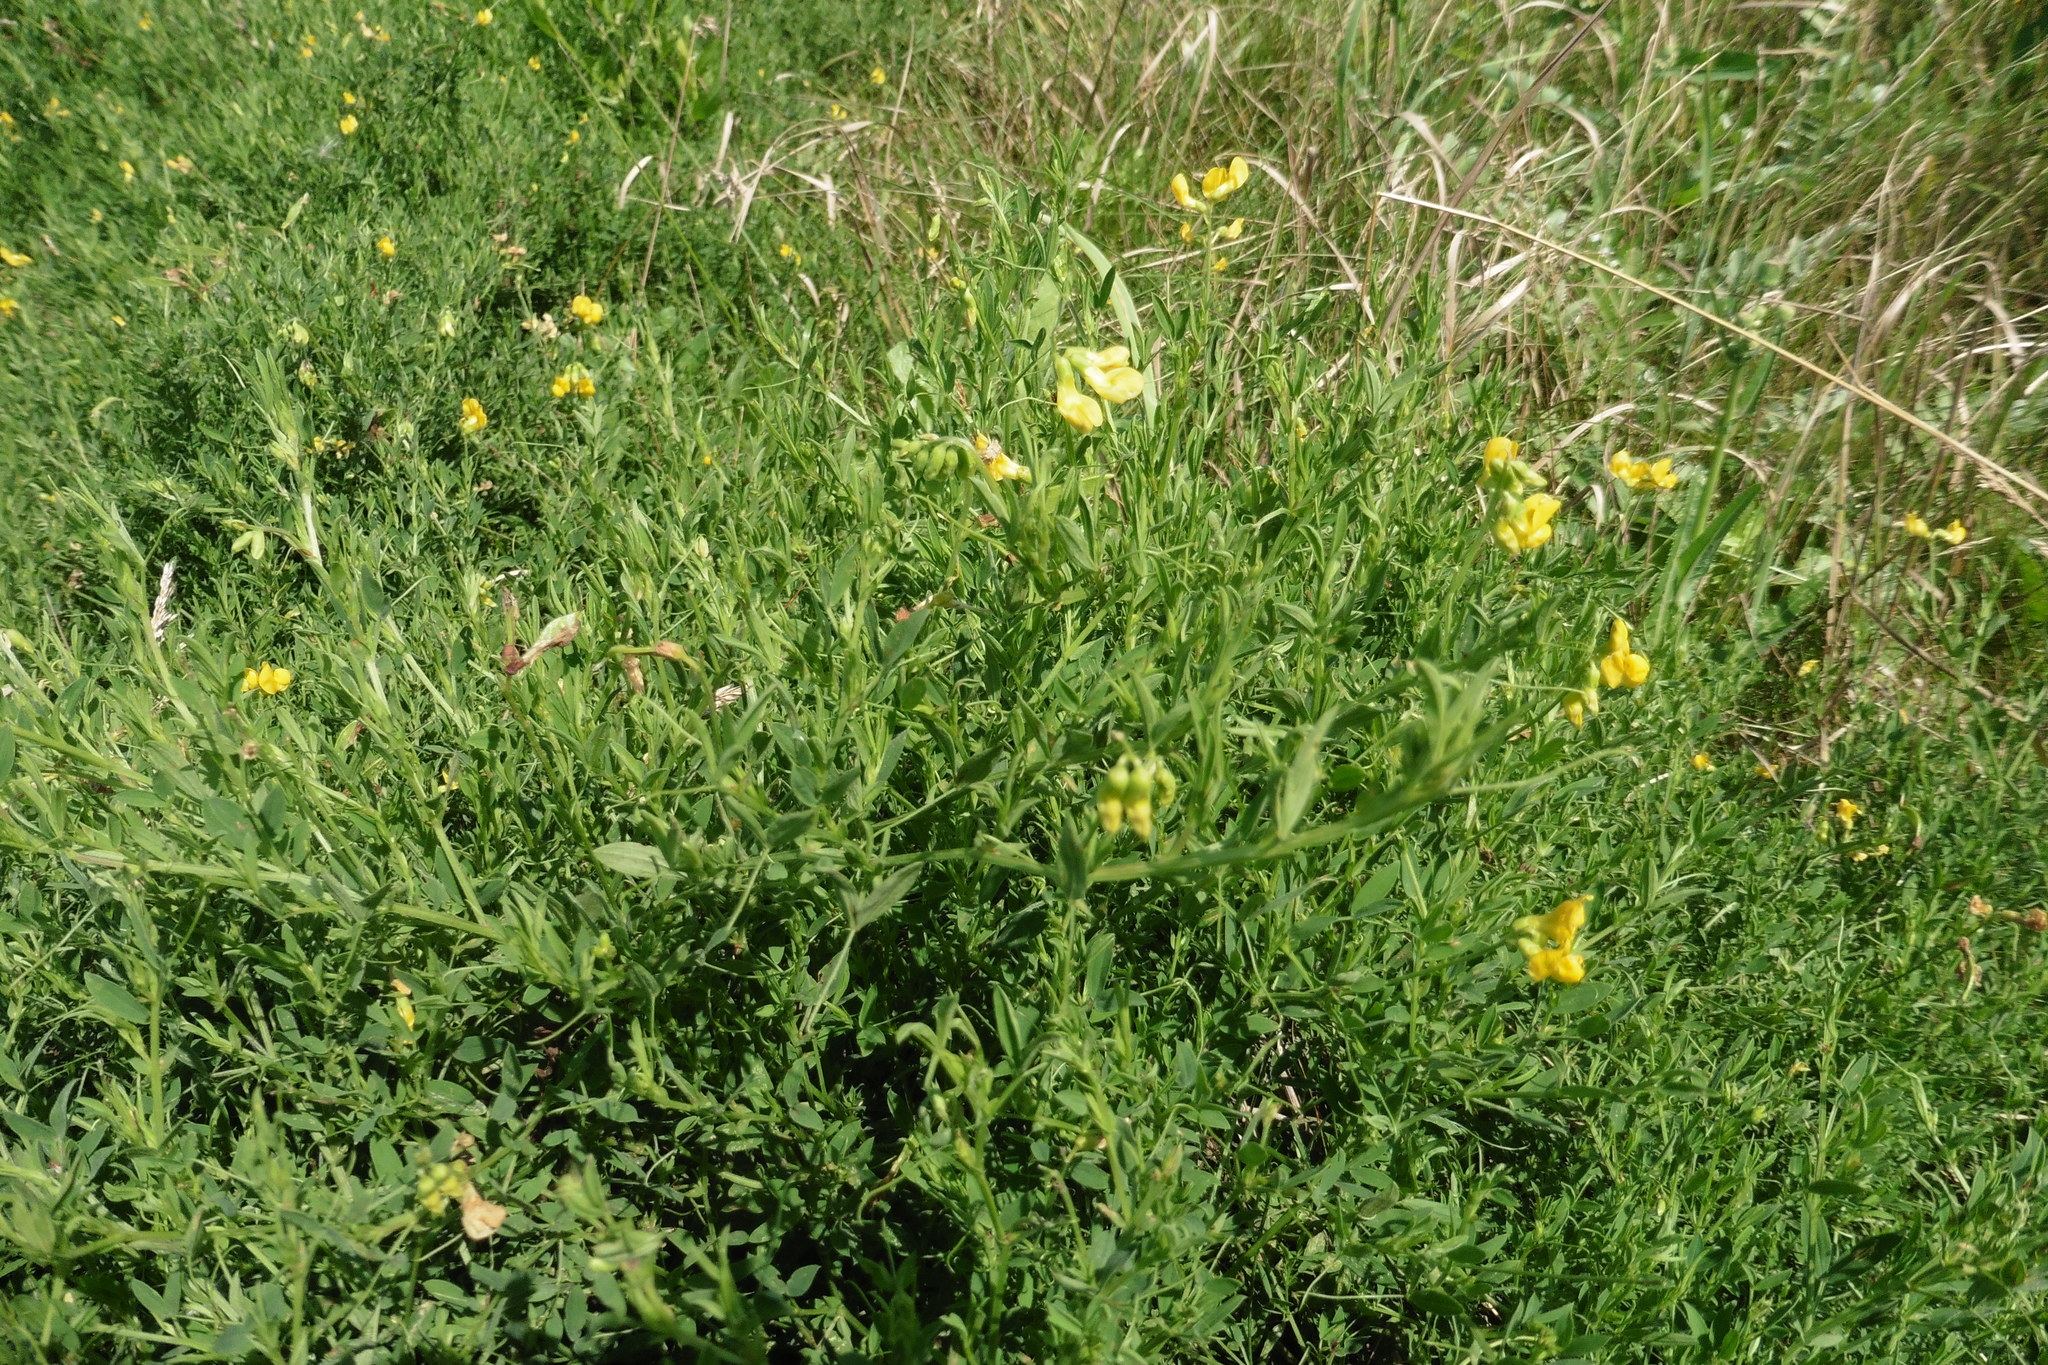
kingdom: Plantae
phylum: Tracheophyta
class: Magnoliopsida
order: Fabales
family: Fabaceae
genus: Lathyrus
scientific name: Lathyrus pratensis
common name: Meadow vetchling
